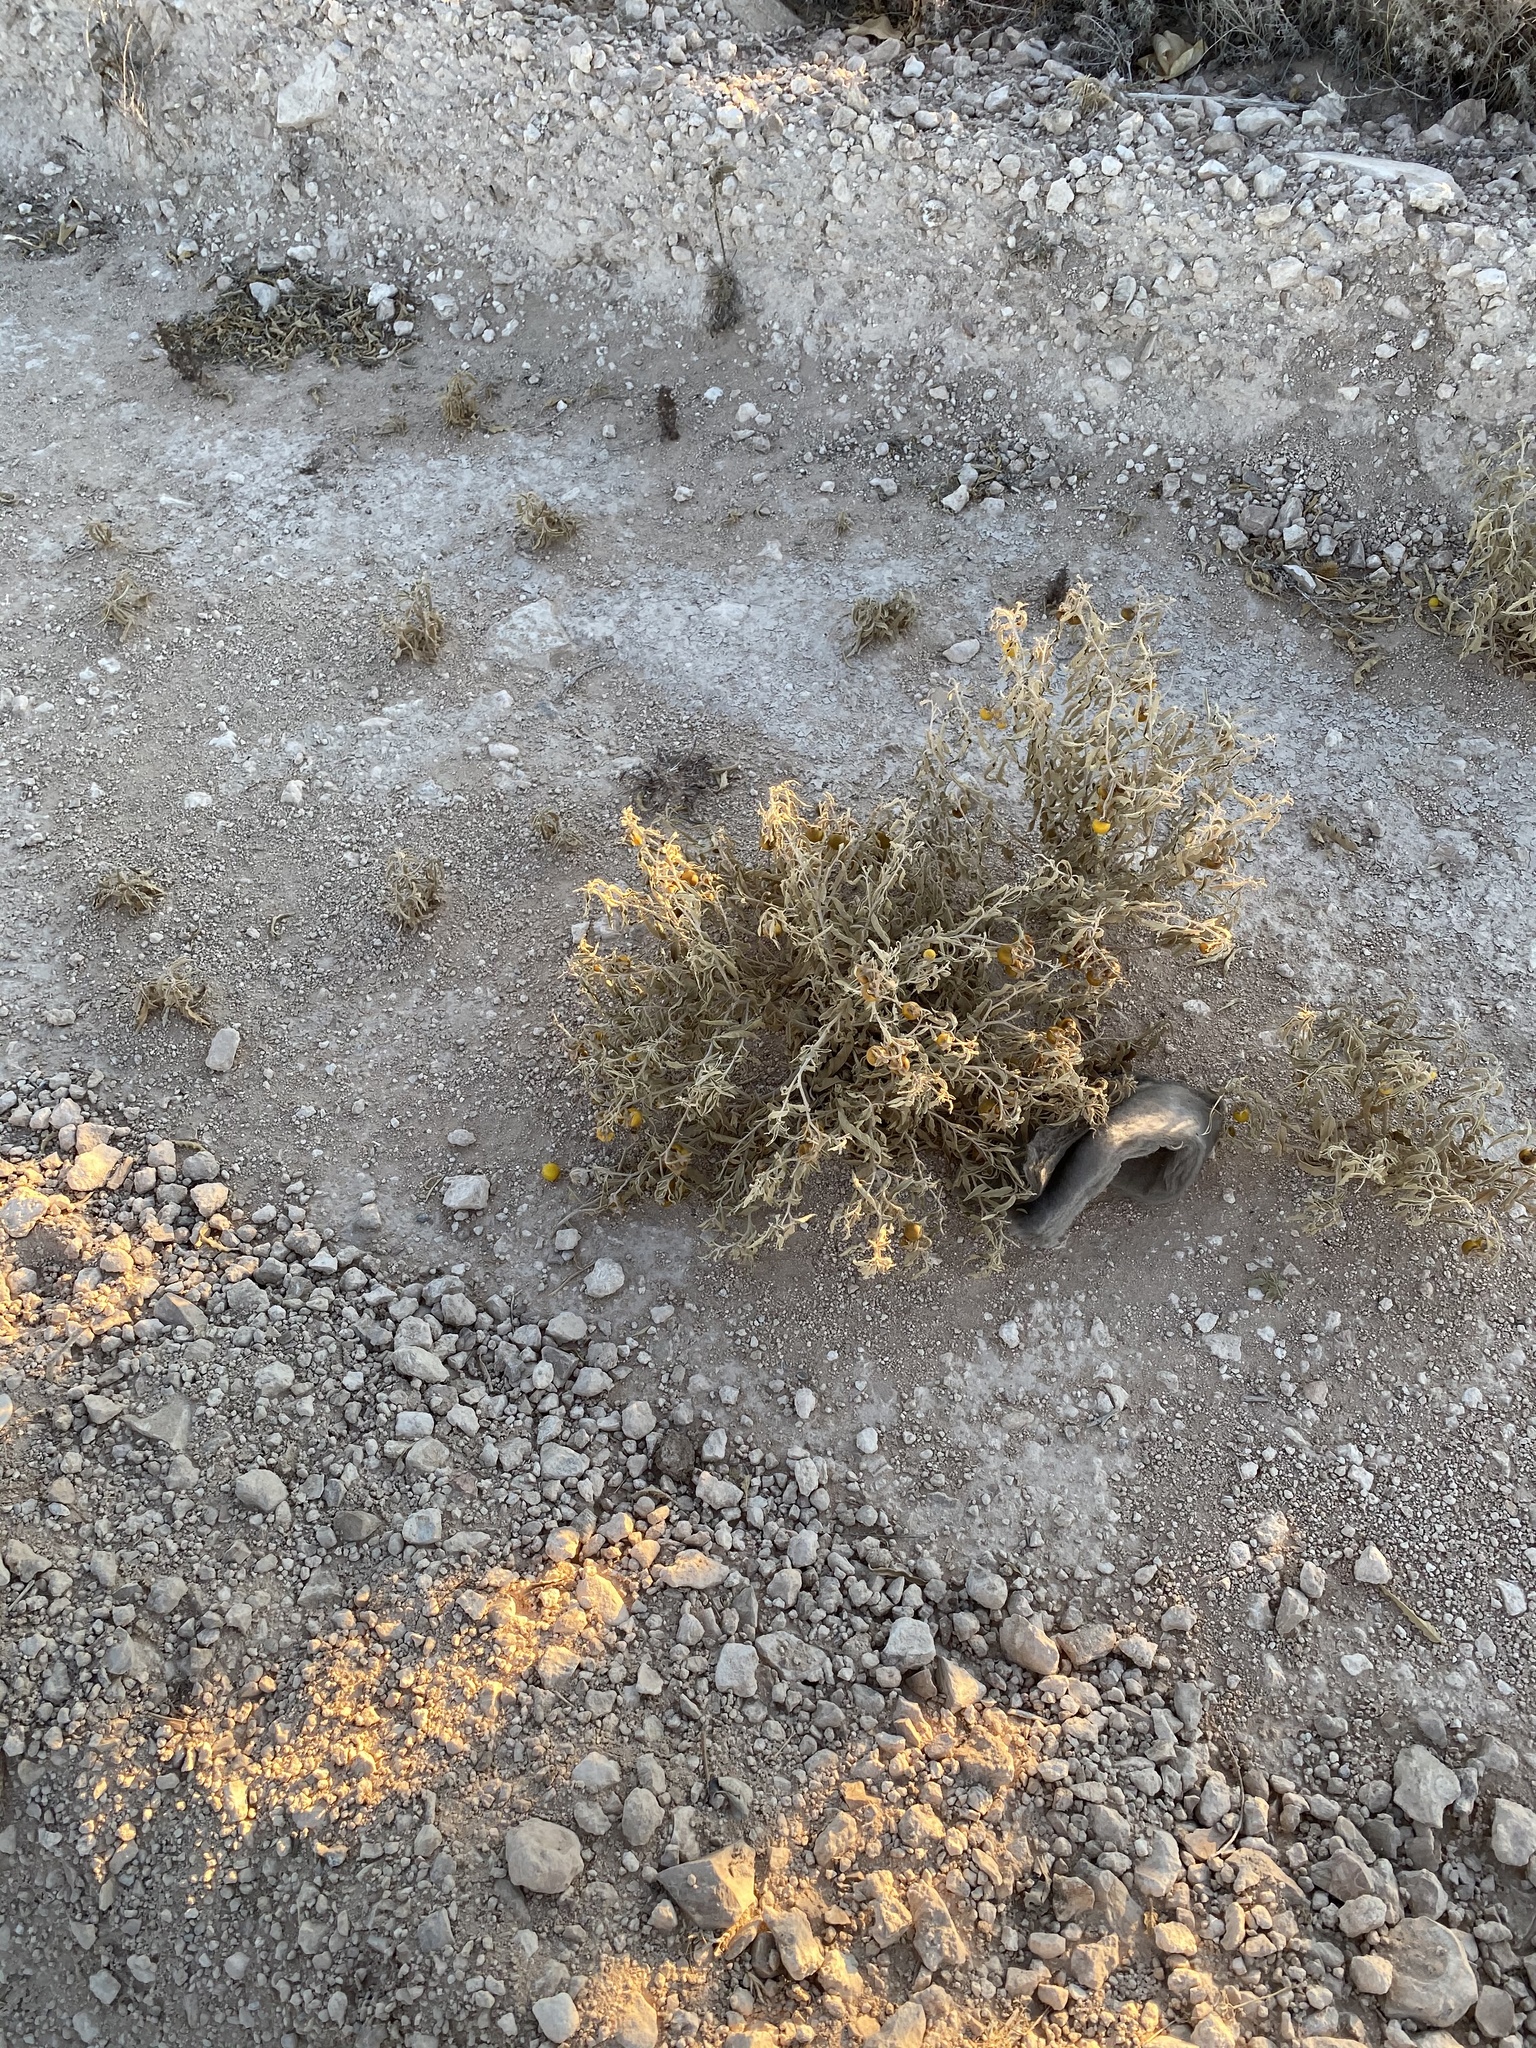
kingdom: Plantae
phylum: Tracheophyta
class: Magnoliopsida
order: Solanales
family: Solanaceae
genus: Solanum
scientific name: Solanum elaeagnifolium
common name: Silverleaf nightshade
